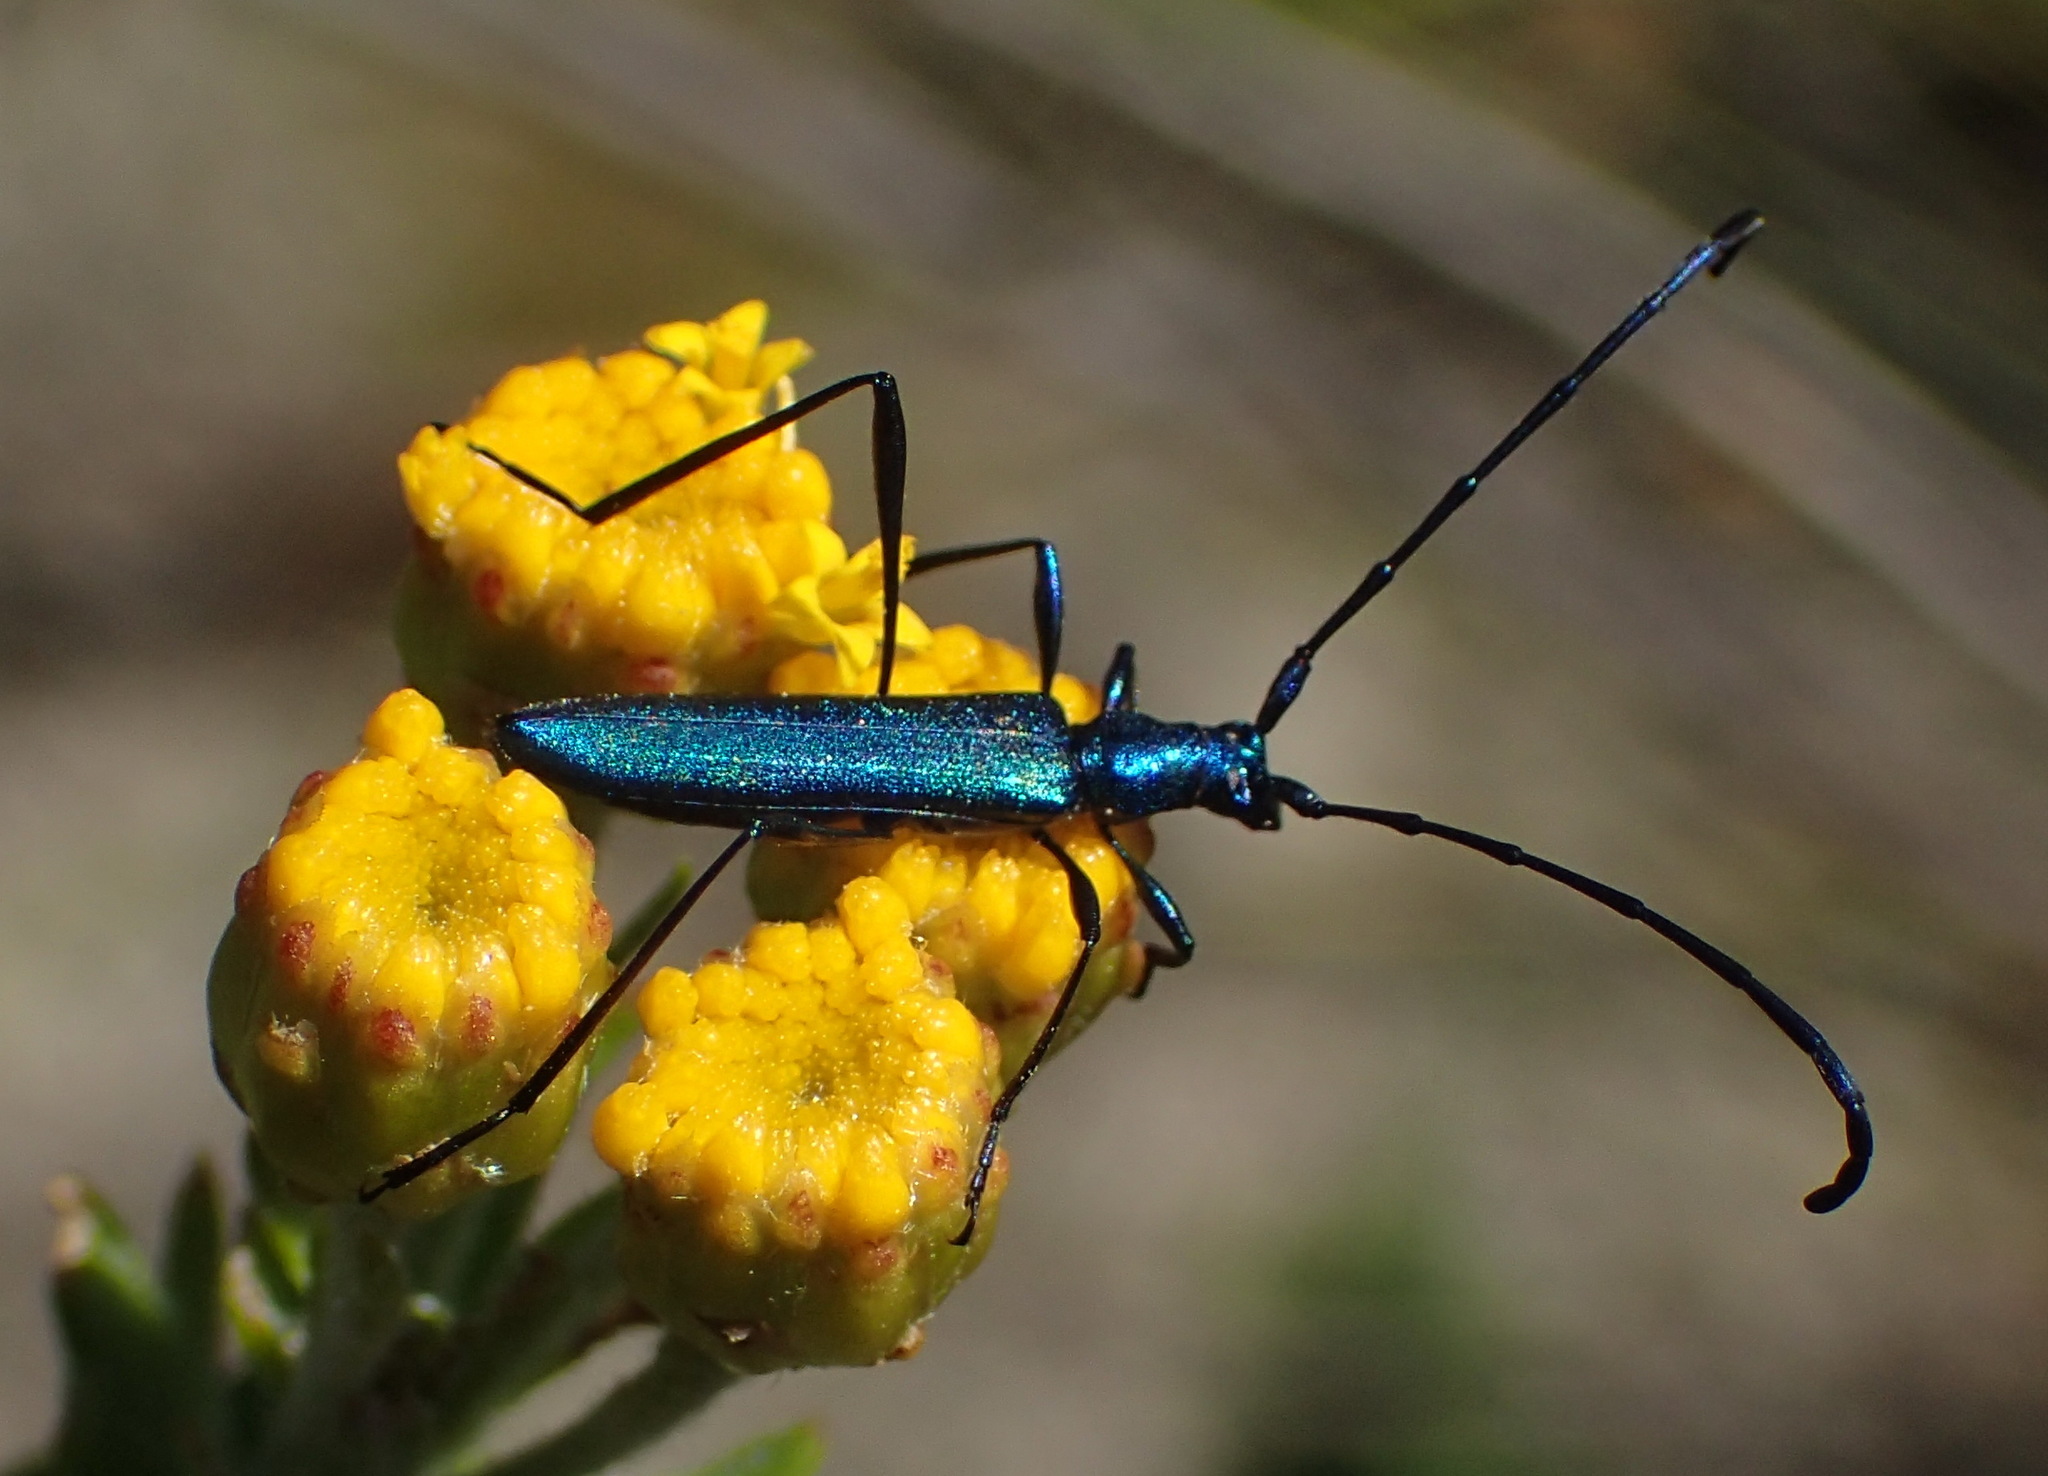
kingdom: Animalia
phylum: Arthropoda
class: Insecta
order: Coleoptera
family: Cerambycidae
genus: Promeces
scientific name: Promeces longipes
